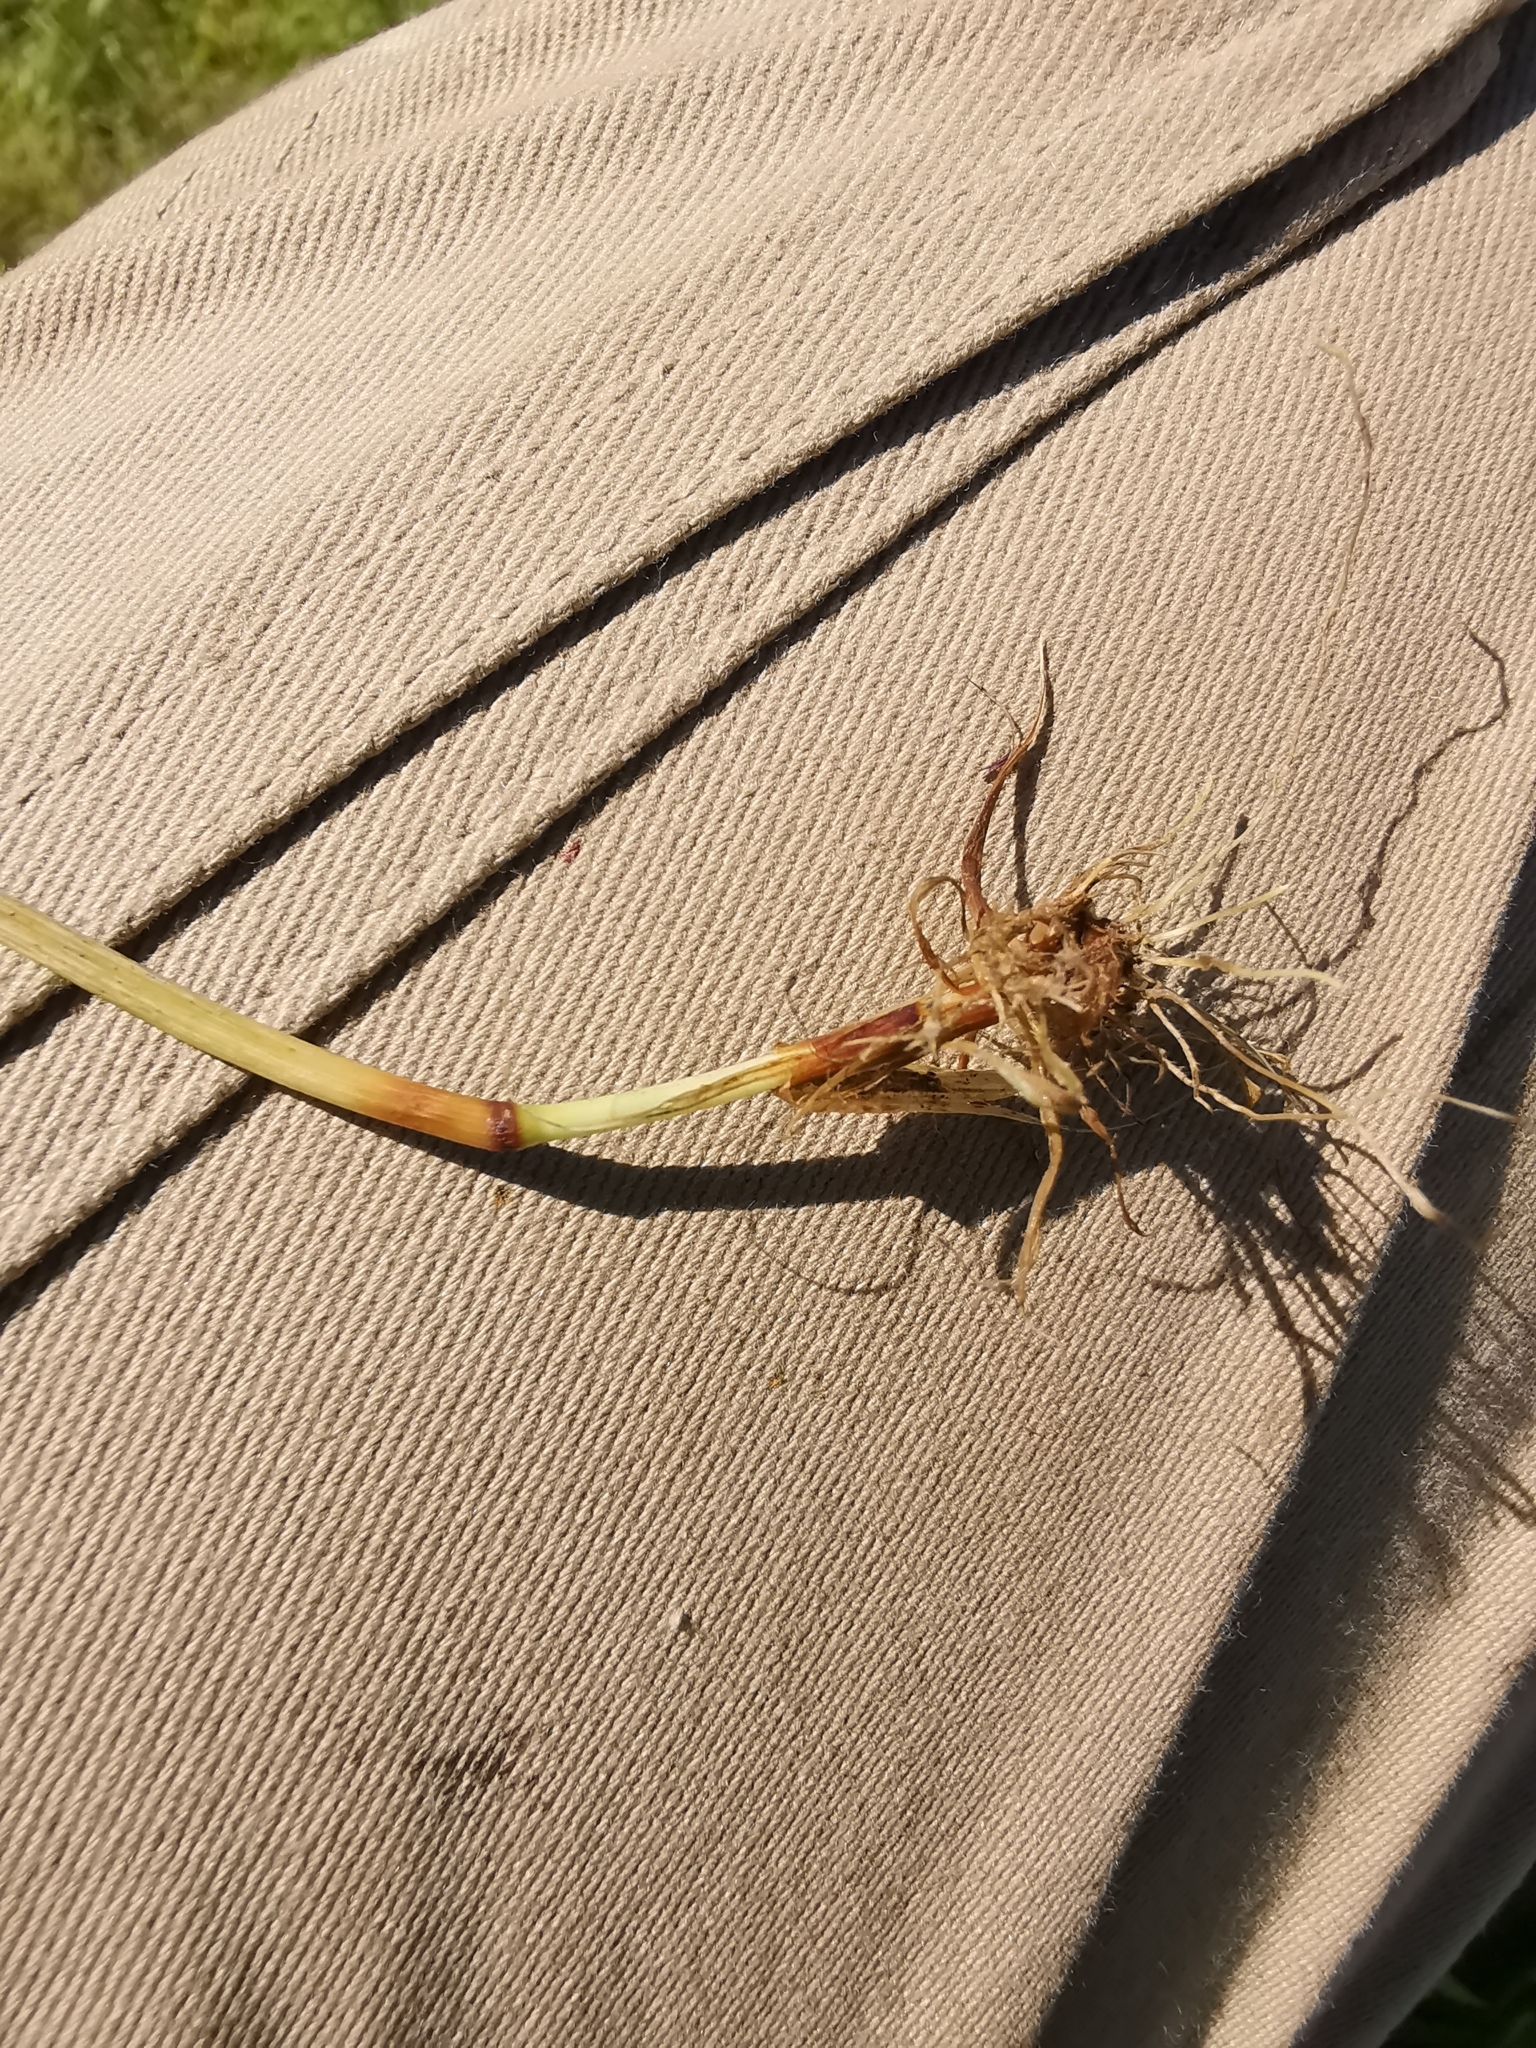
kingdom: Plantae
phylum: Tracheophyta
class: Liliopsida
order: Poales
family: Poaceae
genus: Cynosurus
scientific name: Cynosurus cristatus
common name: Crested dog's-tail
